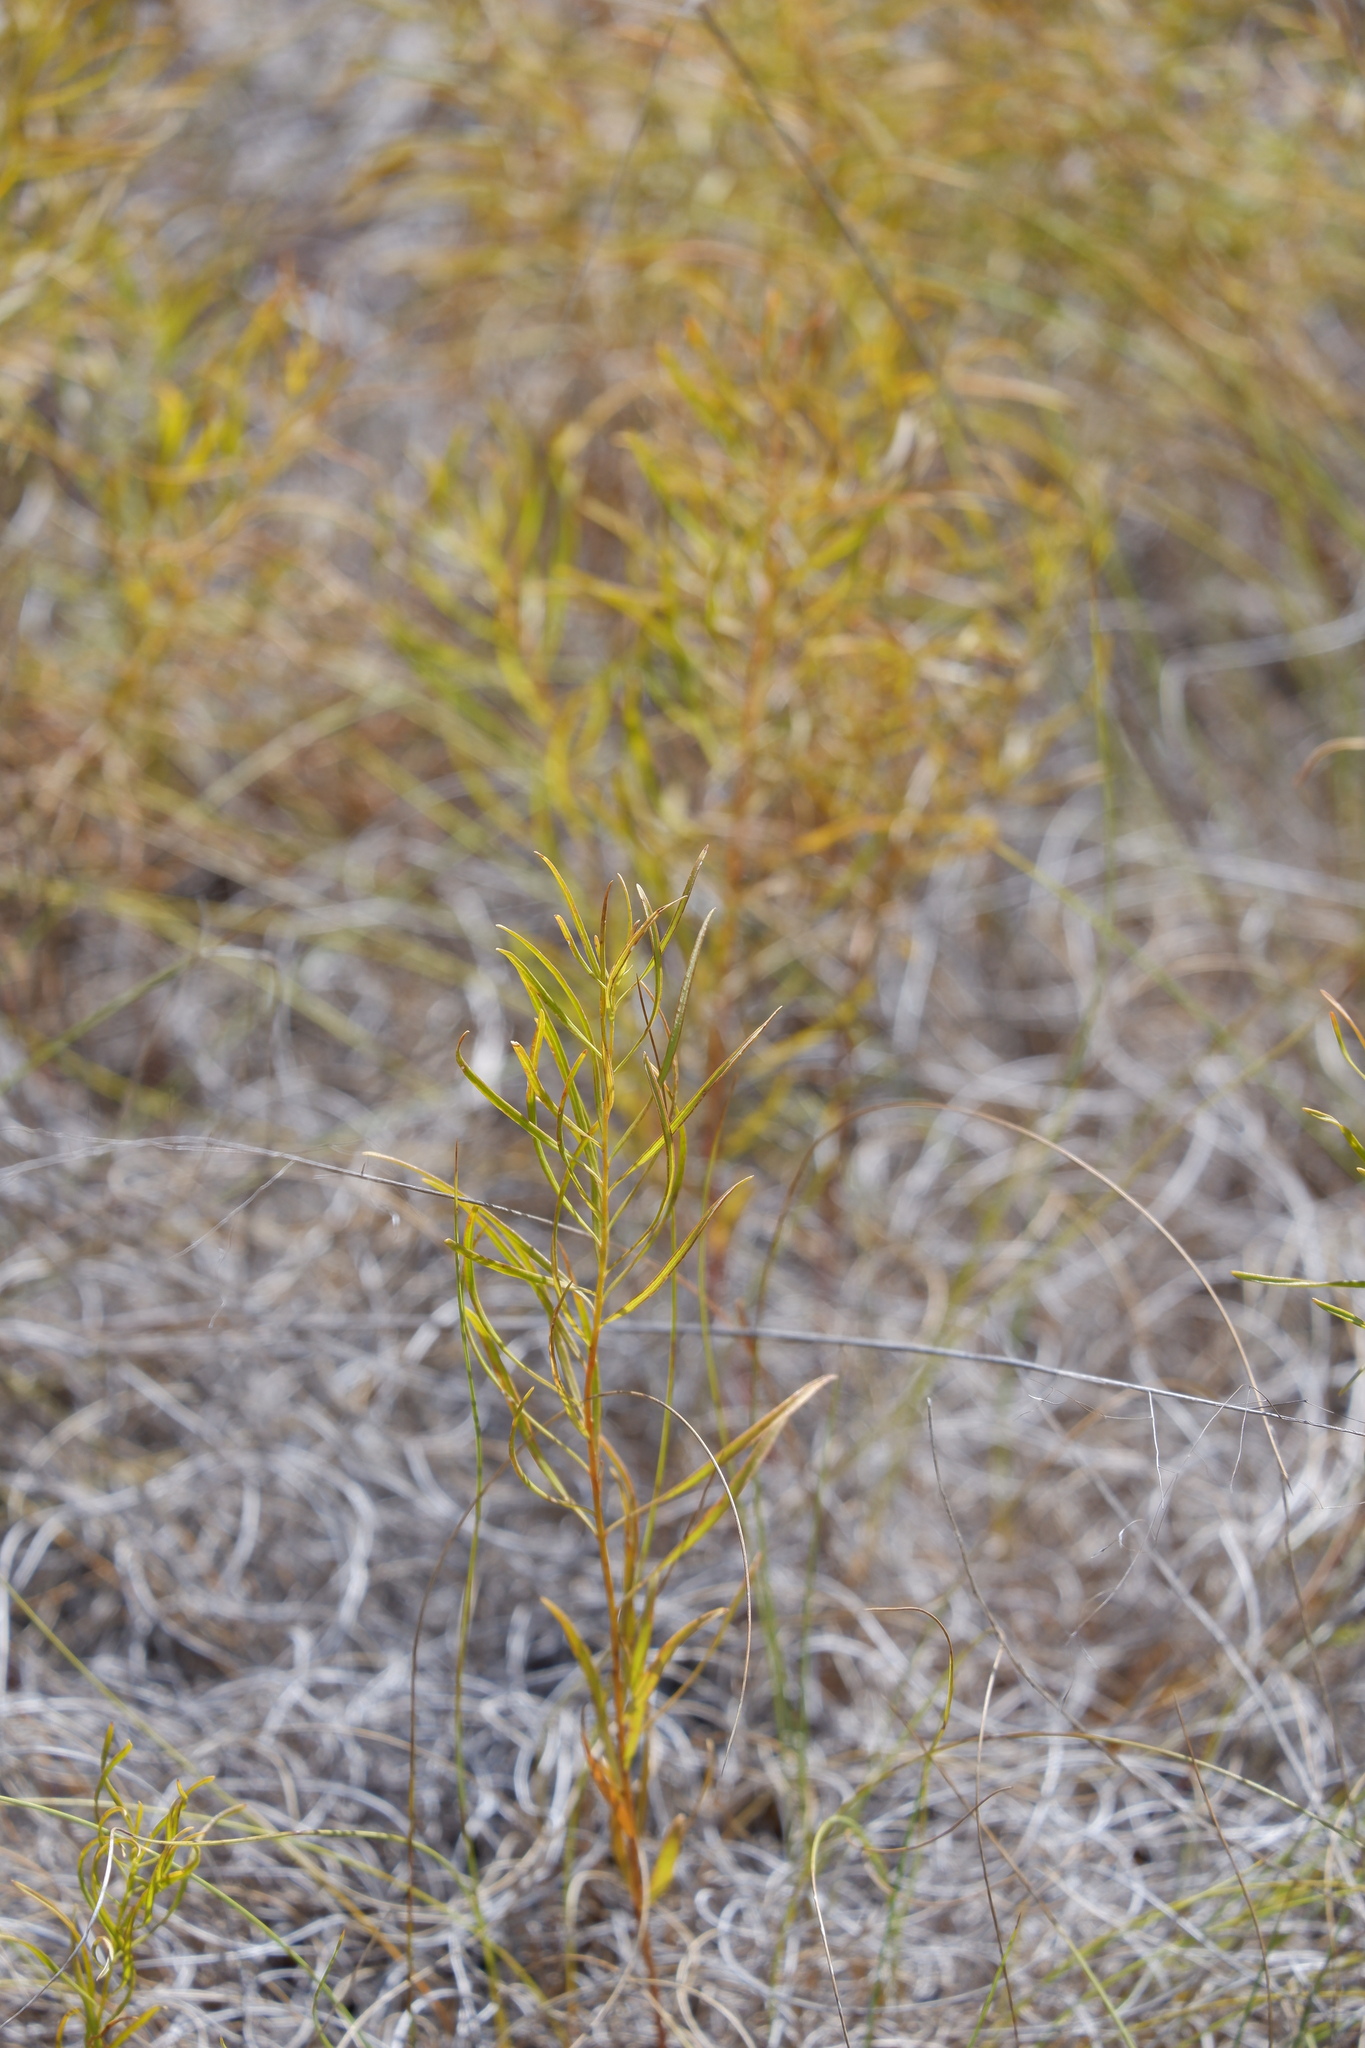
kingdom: Plantae
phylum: Tracheophyta
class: Magnoliopsida
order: Gentianales
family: Apocynaceae
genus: Amsonia
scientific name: Amsonia ciliata
